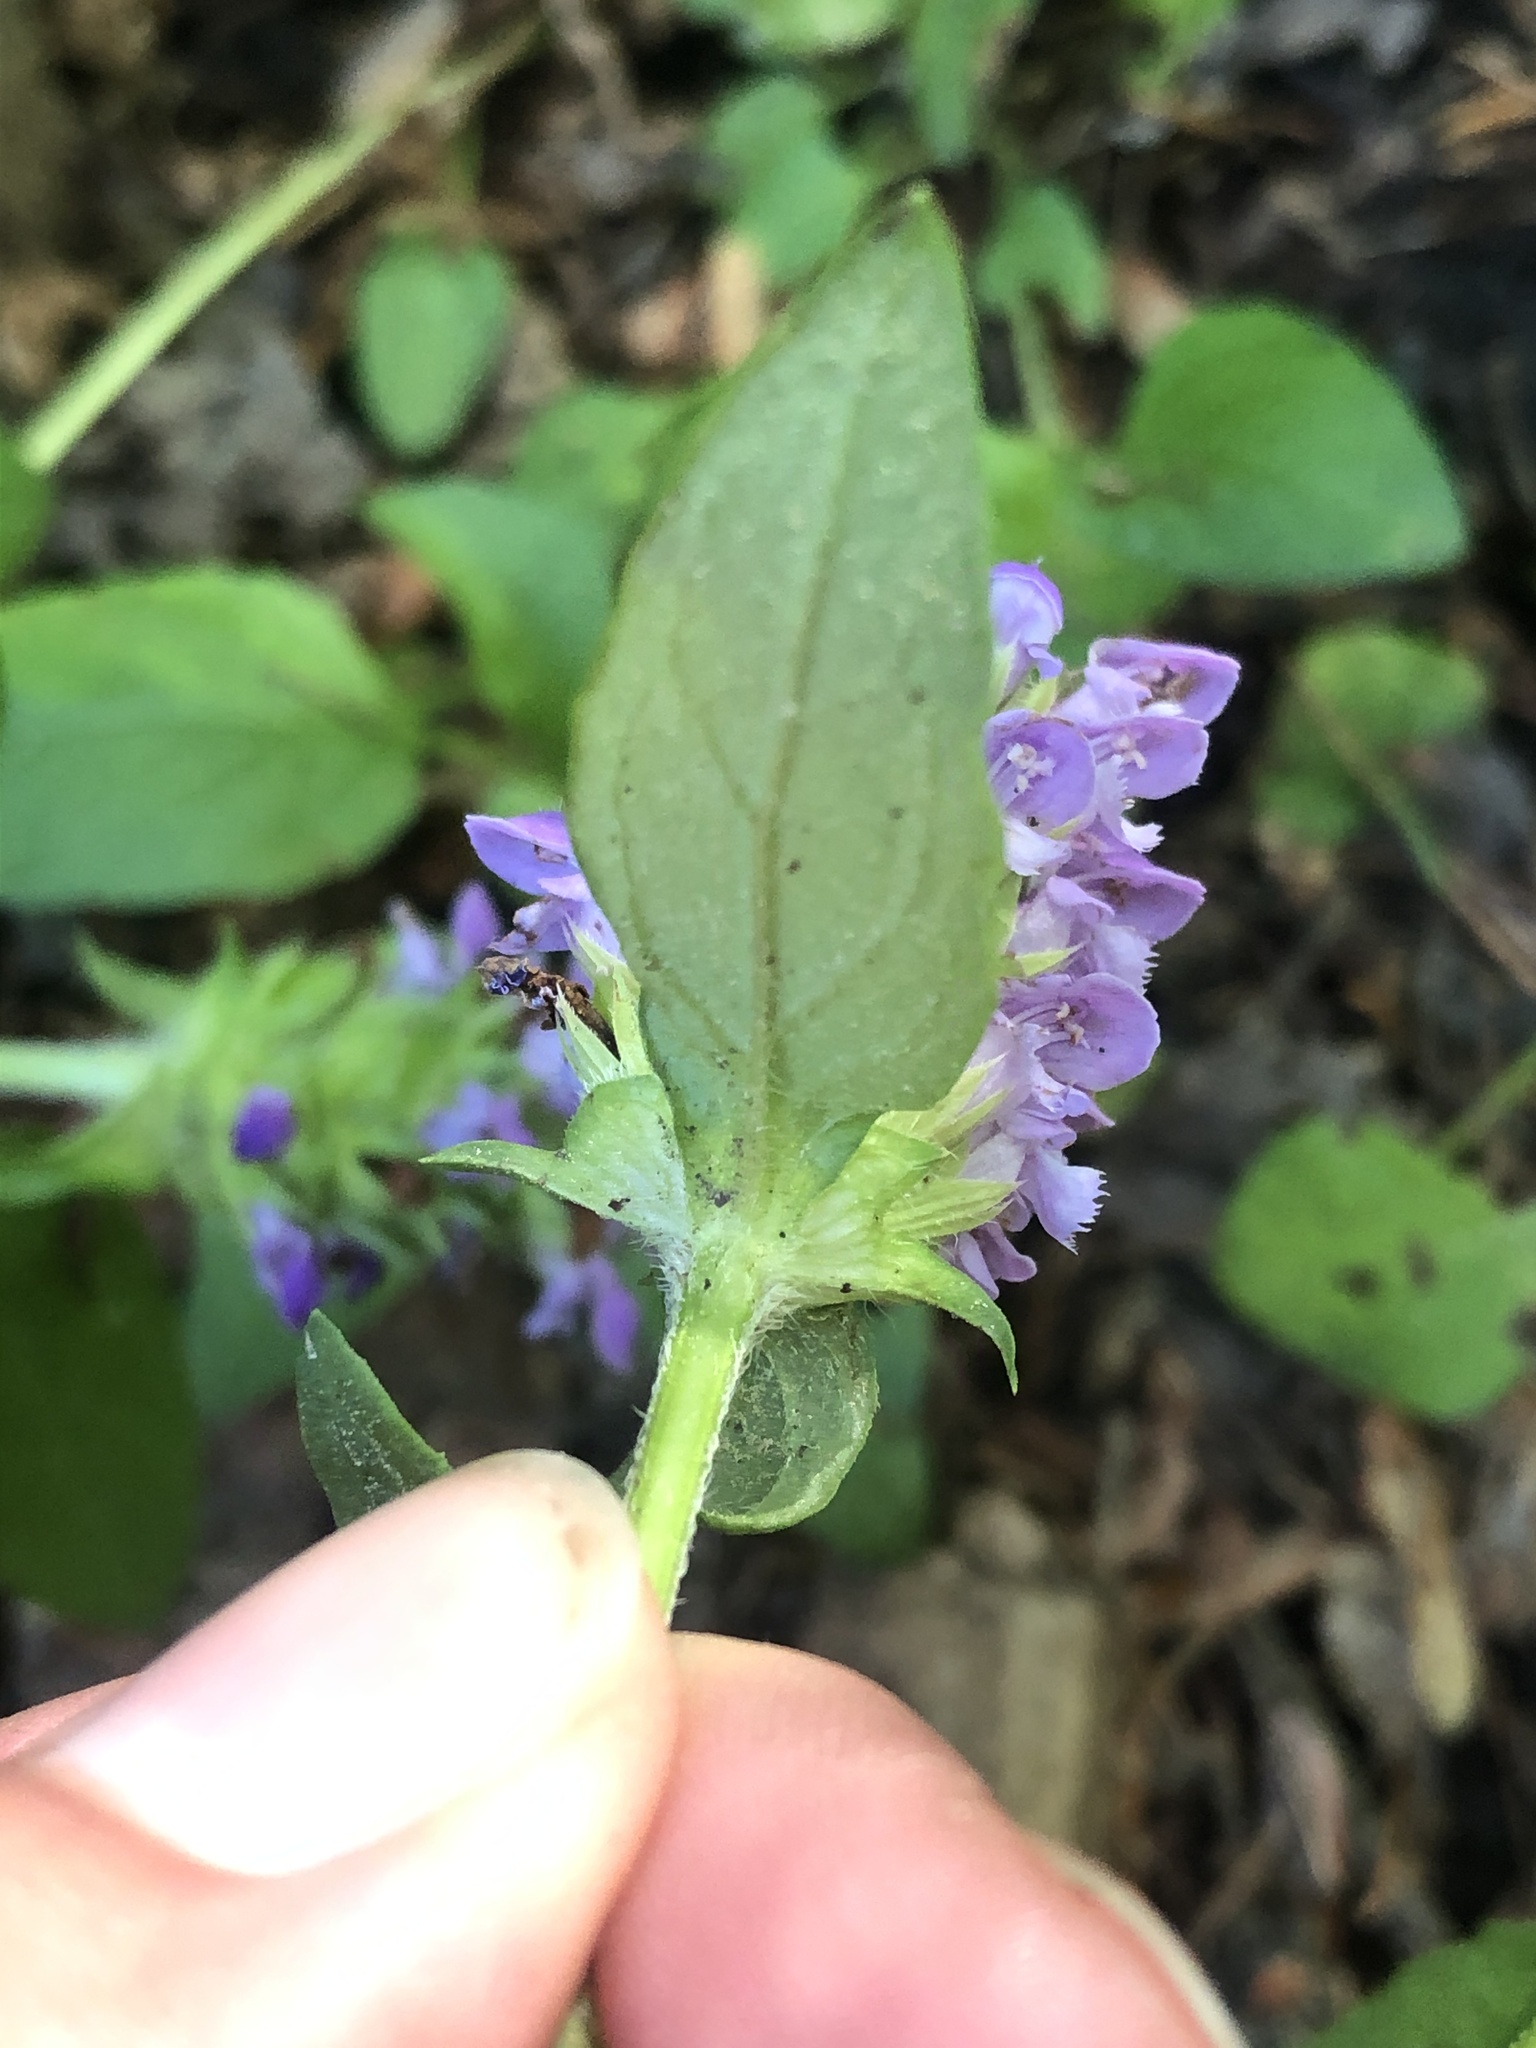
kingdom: Plantae
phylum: Tracheophyta
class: Magnoliopsida
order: Lamiales
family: Lamiaceae
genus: Prunella
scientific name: Prunella vulgaris
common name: Heal-all
